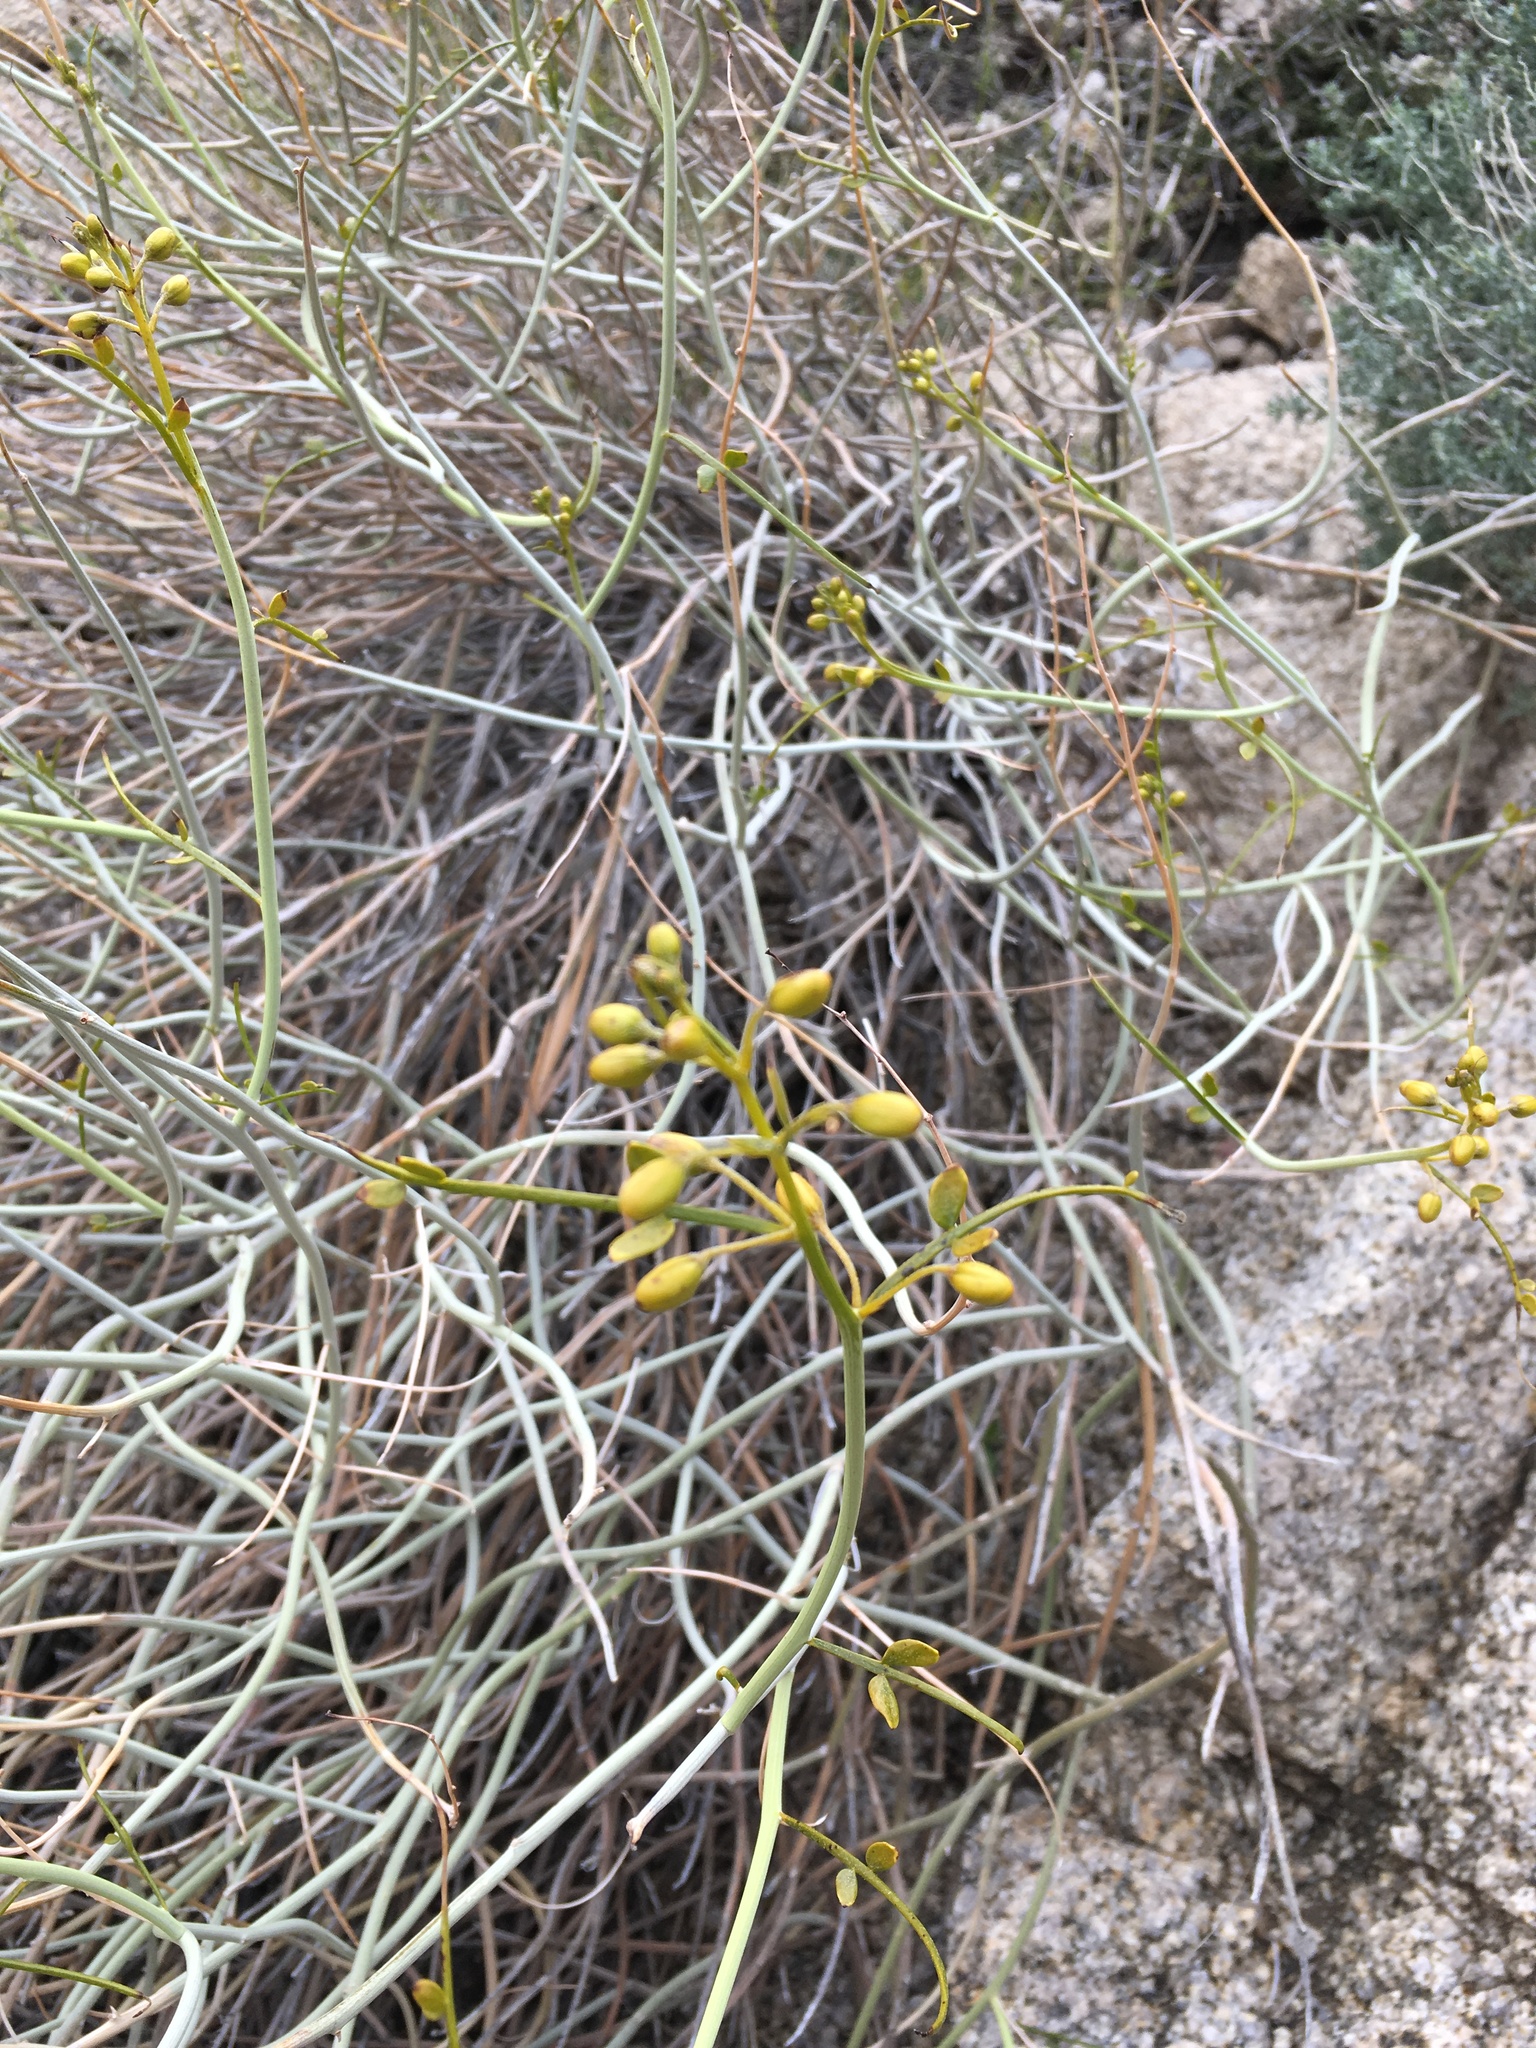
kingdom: Plantae
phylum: Tracheophyta
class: Magnoliopsida
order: Fabales
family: Fabaceae
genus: Senna
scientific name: Senna armata
